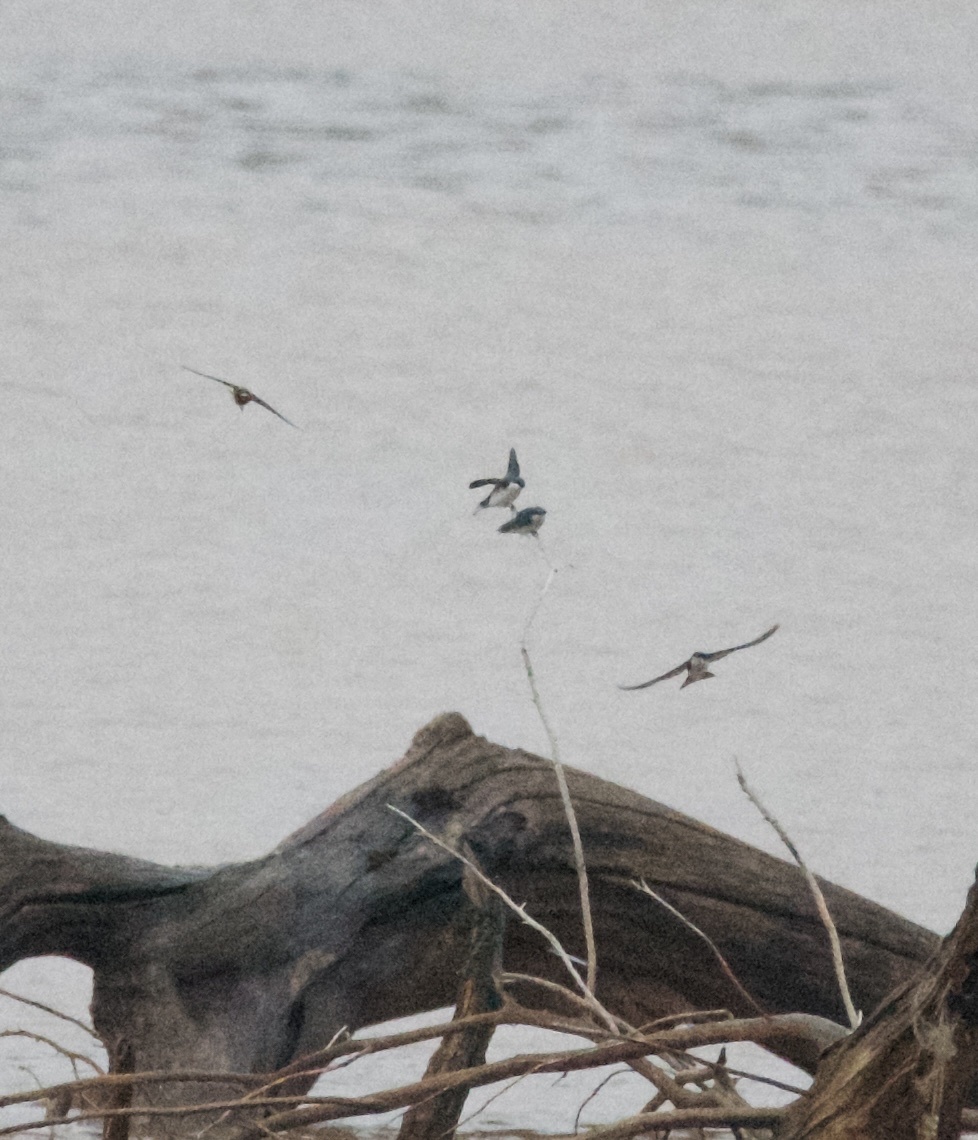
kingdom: Animalia
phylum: Chordata
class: Aves
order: Passeriformes
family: Hirundinidae
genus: Tachycineta
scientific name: Tachycineta bicolor
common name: Tree swallow
